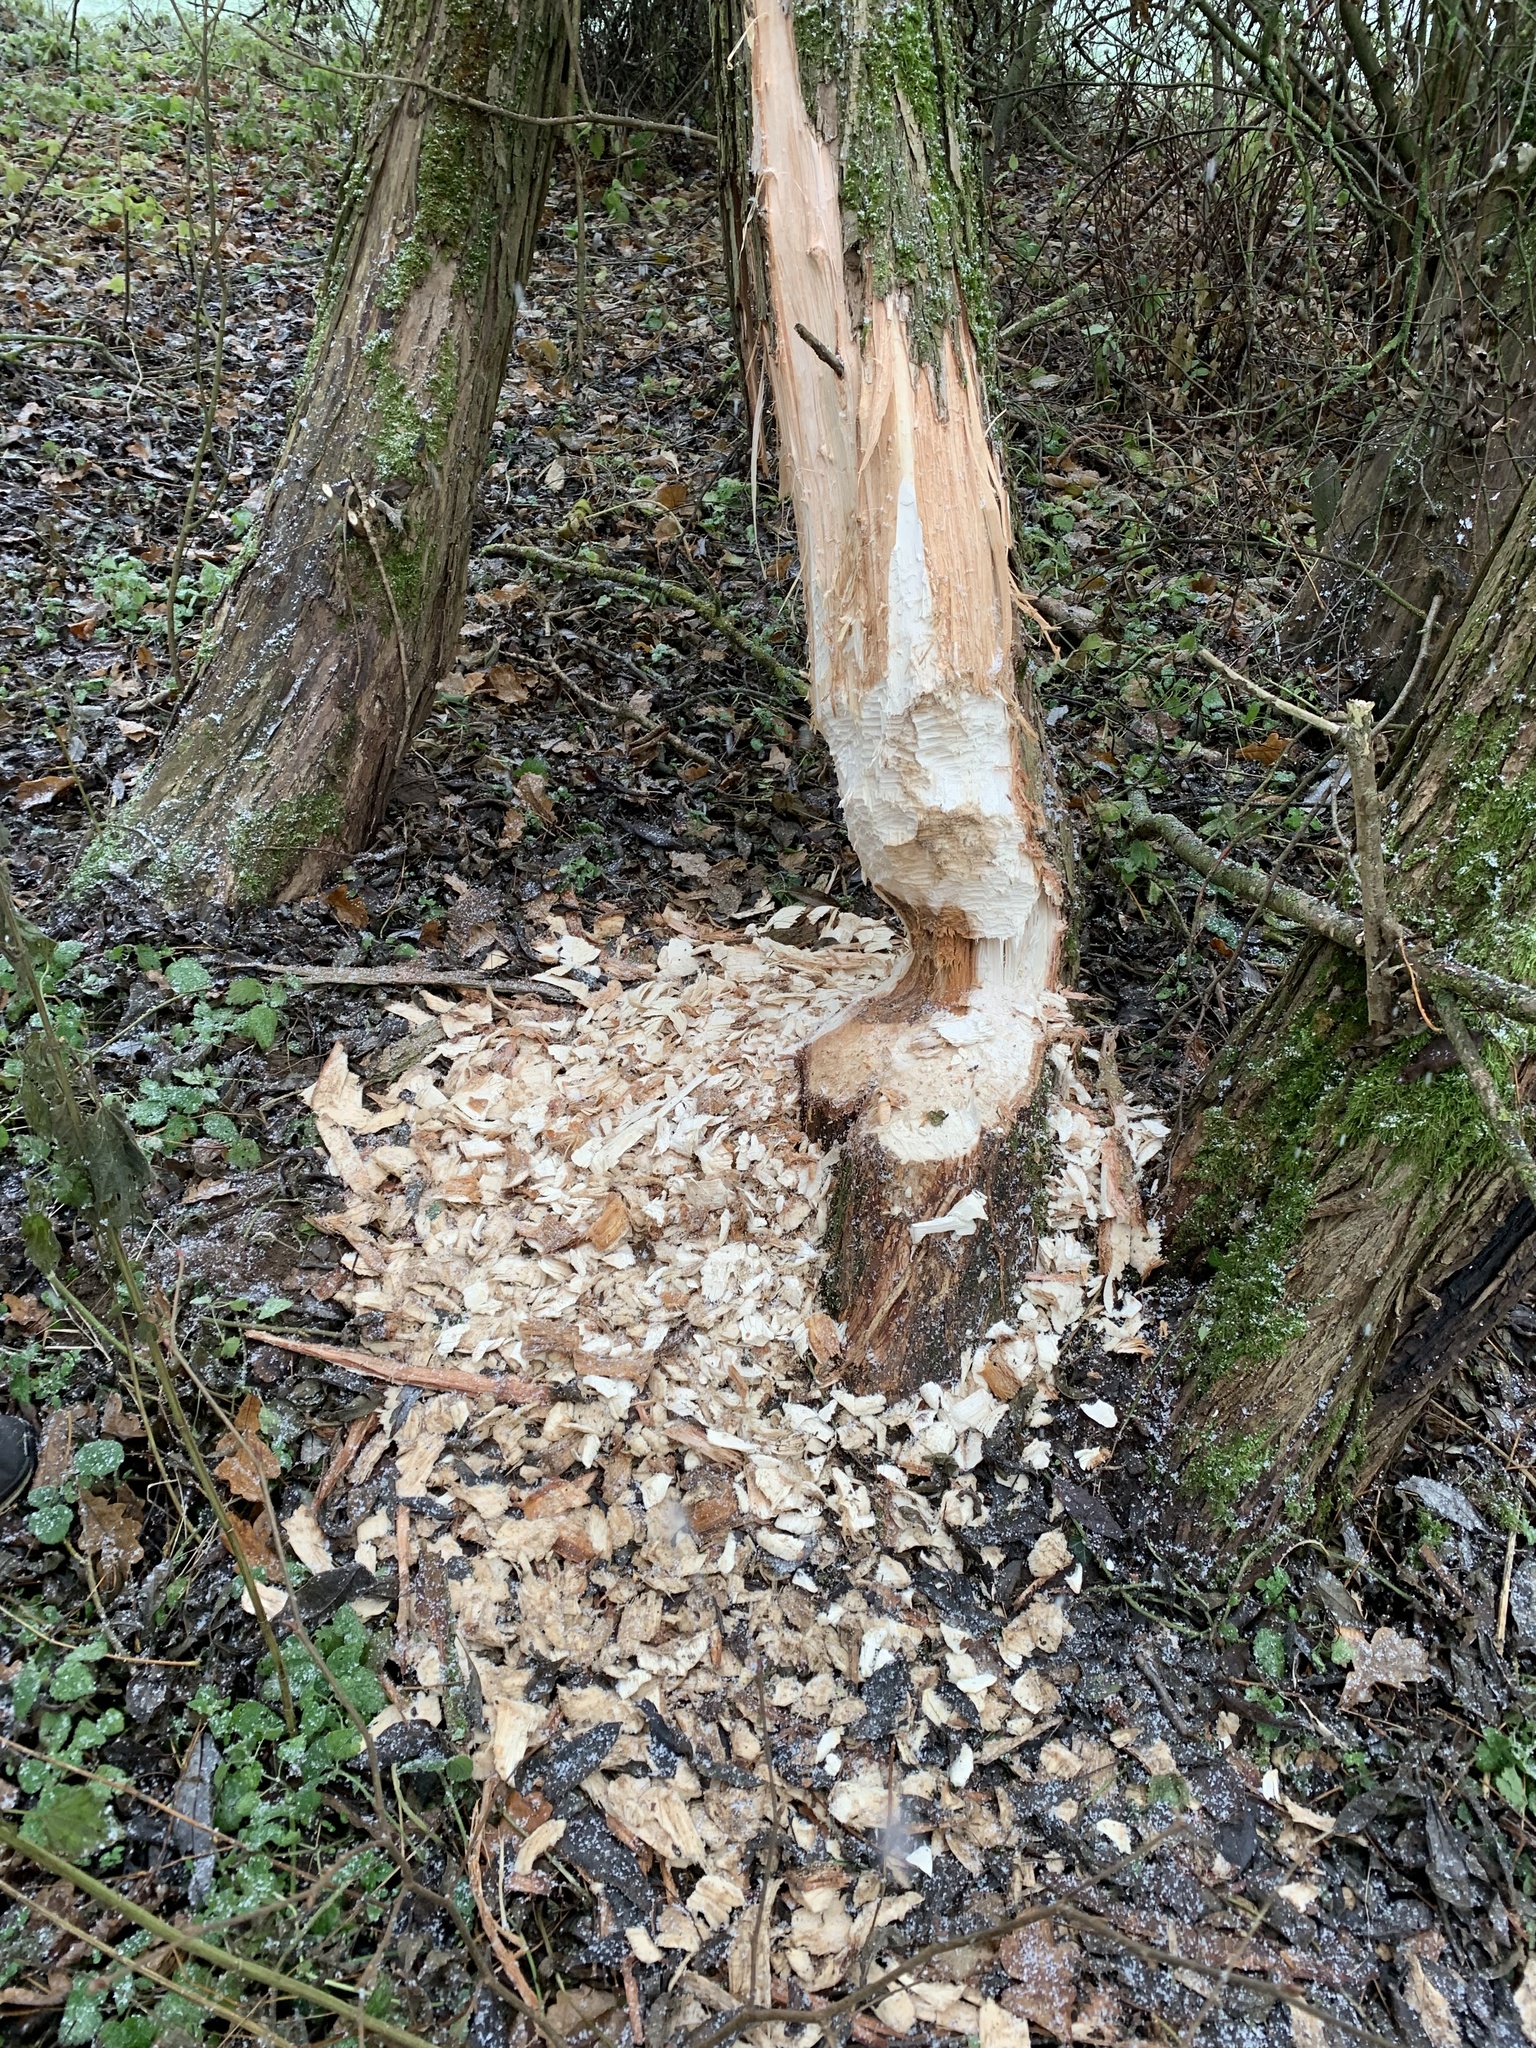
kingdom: Animalia
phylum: Chordata
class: Mammalia
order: Rodentia
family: Castoridae
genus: Castor
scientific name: Castor fiber
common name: Eurasian beaver
